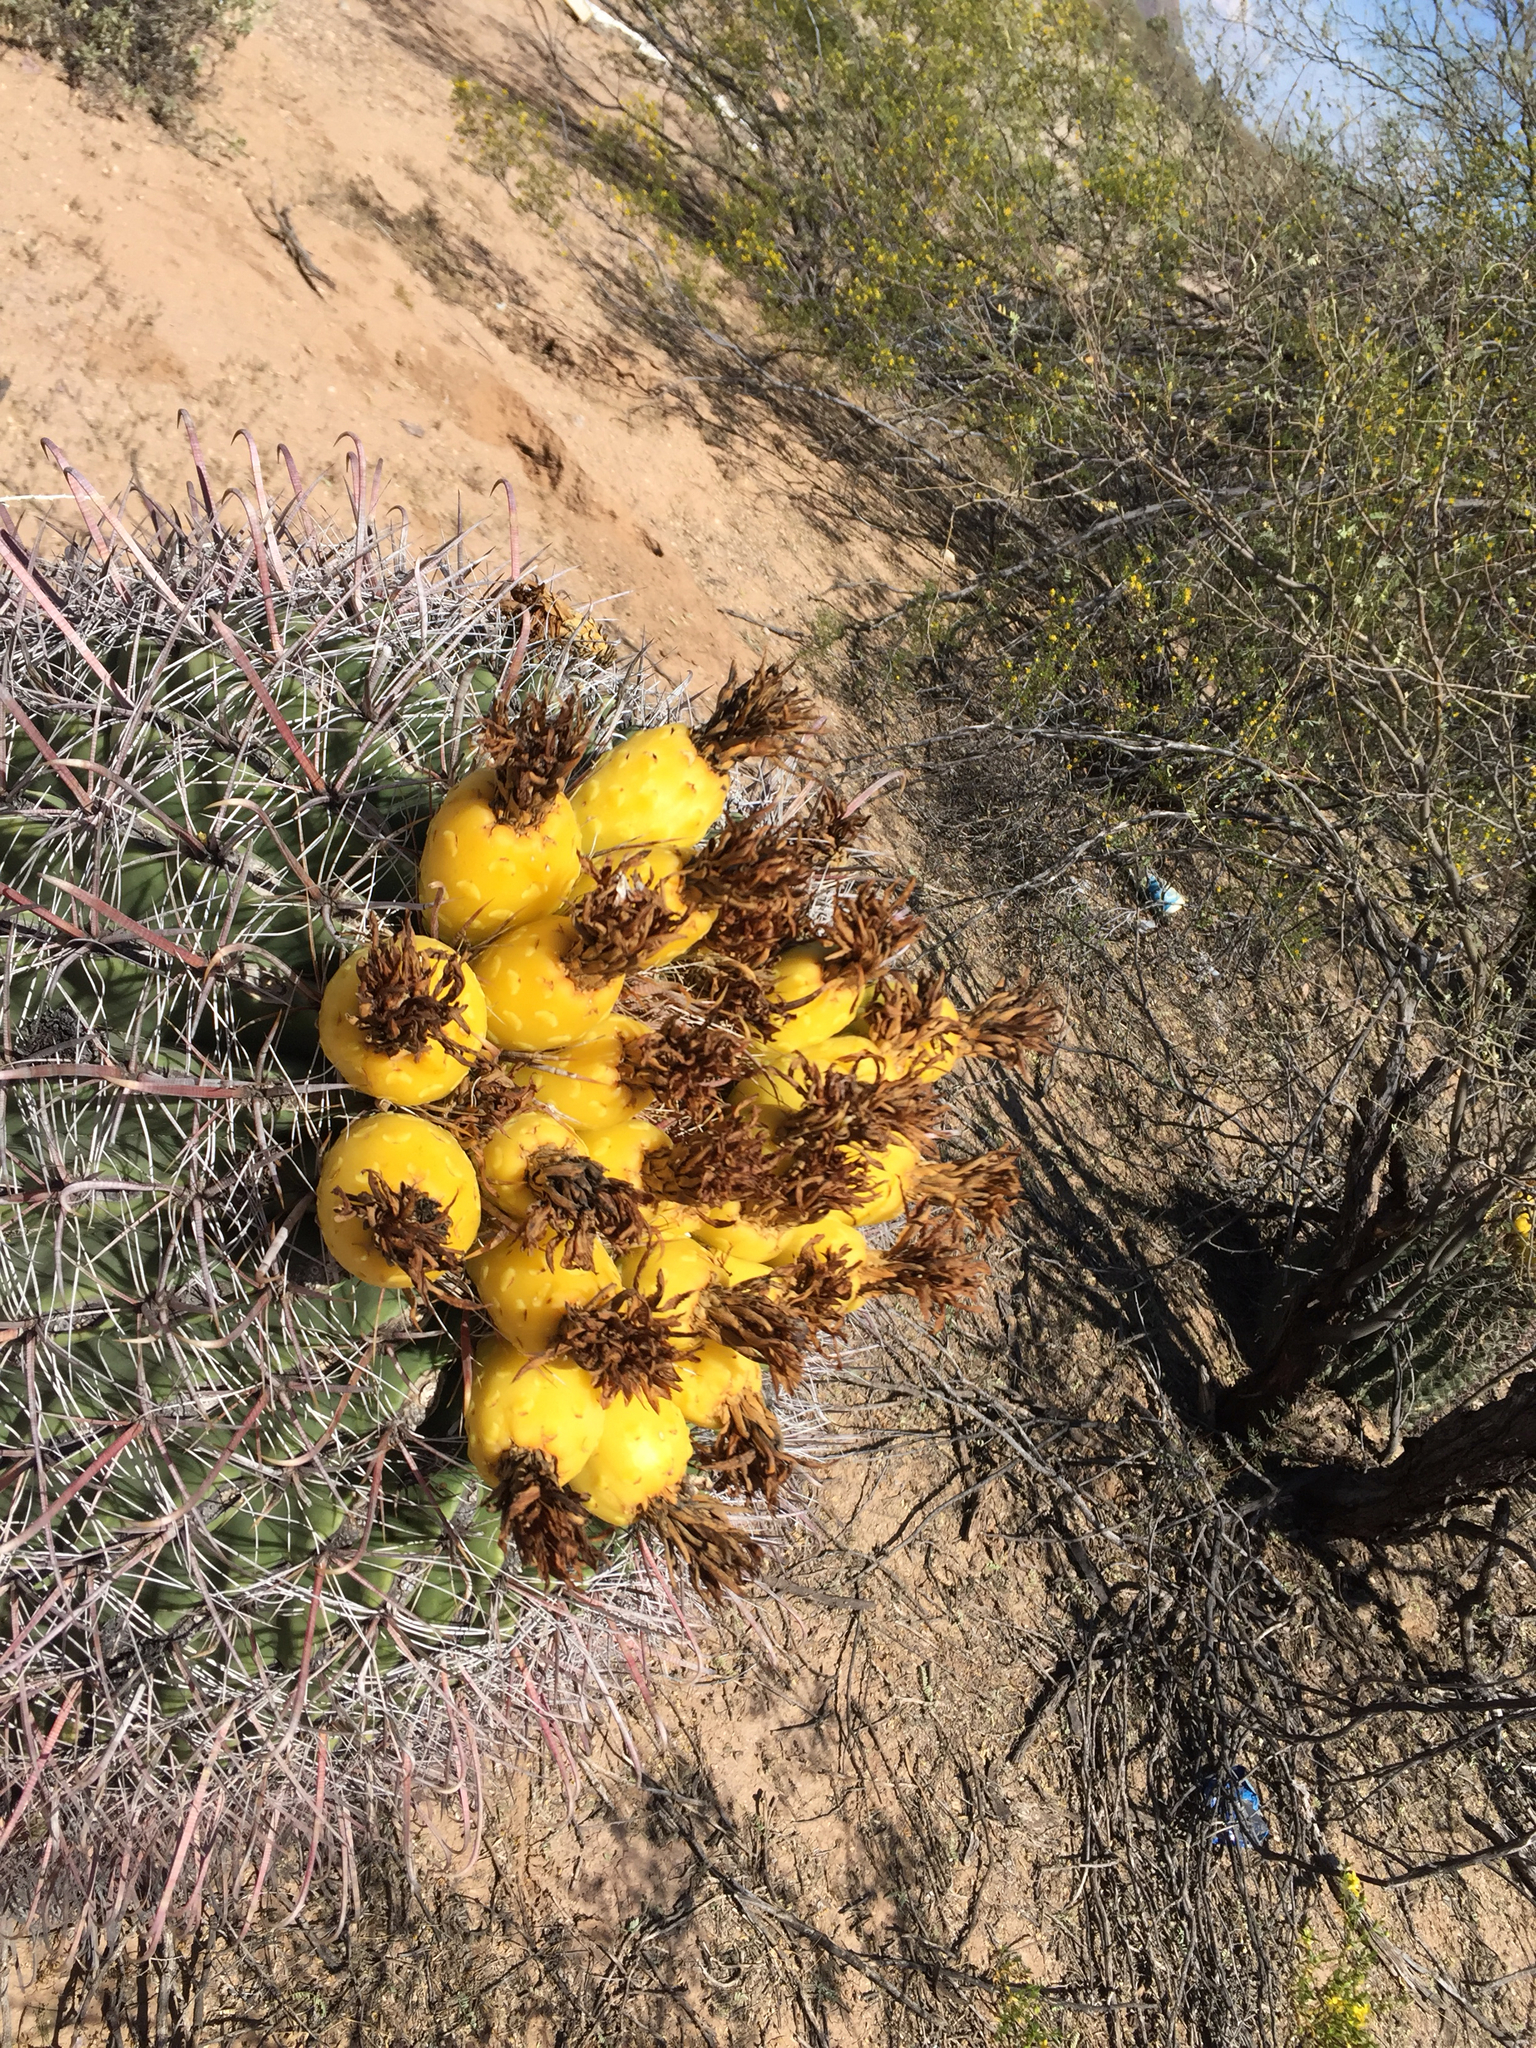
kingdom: Plantae
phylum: Tracheophyta
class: Magnoliopsida
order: Caryophyllales
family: Cactaceae
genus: Ferocactus
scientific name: Ferocactus wislizeni
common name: Candy barrel cactus
